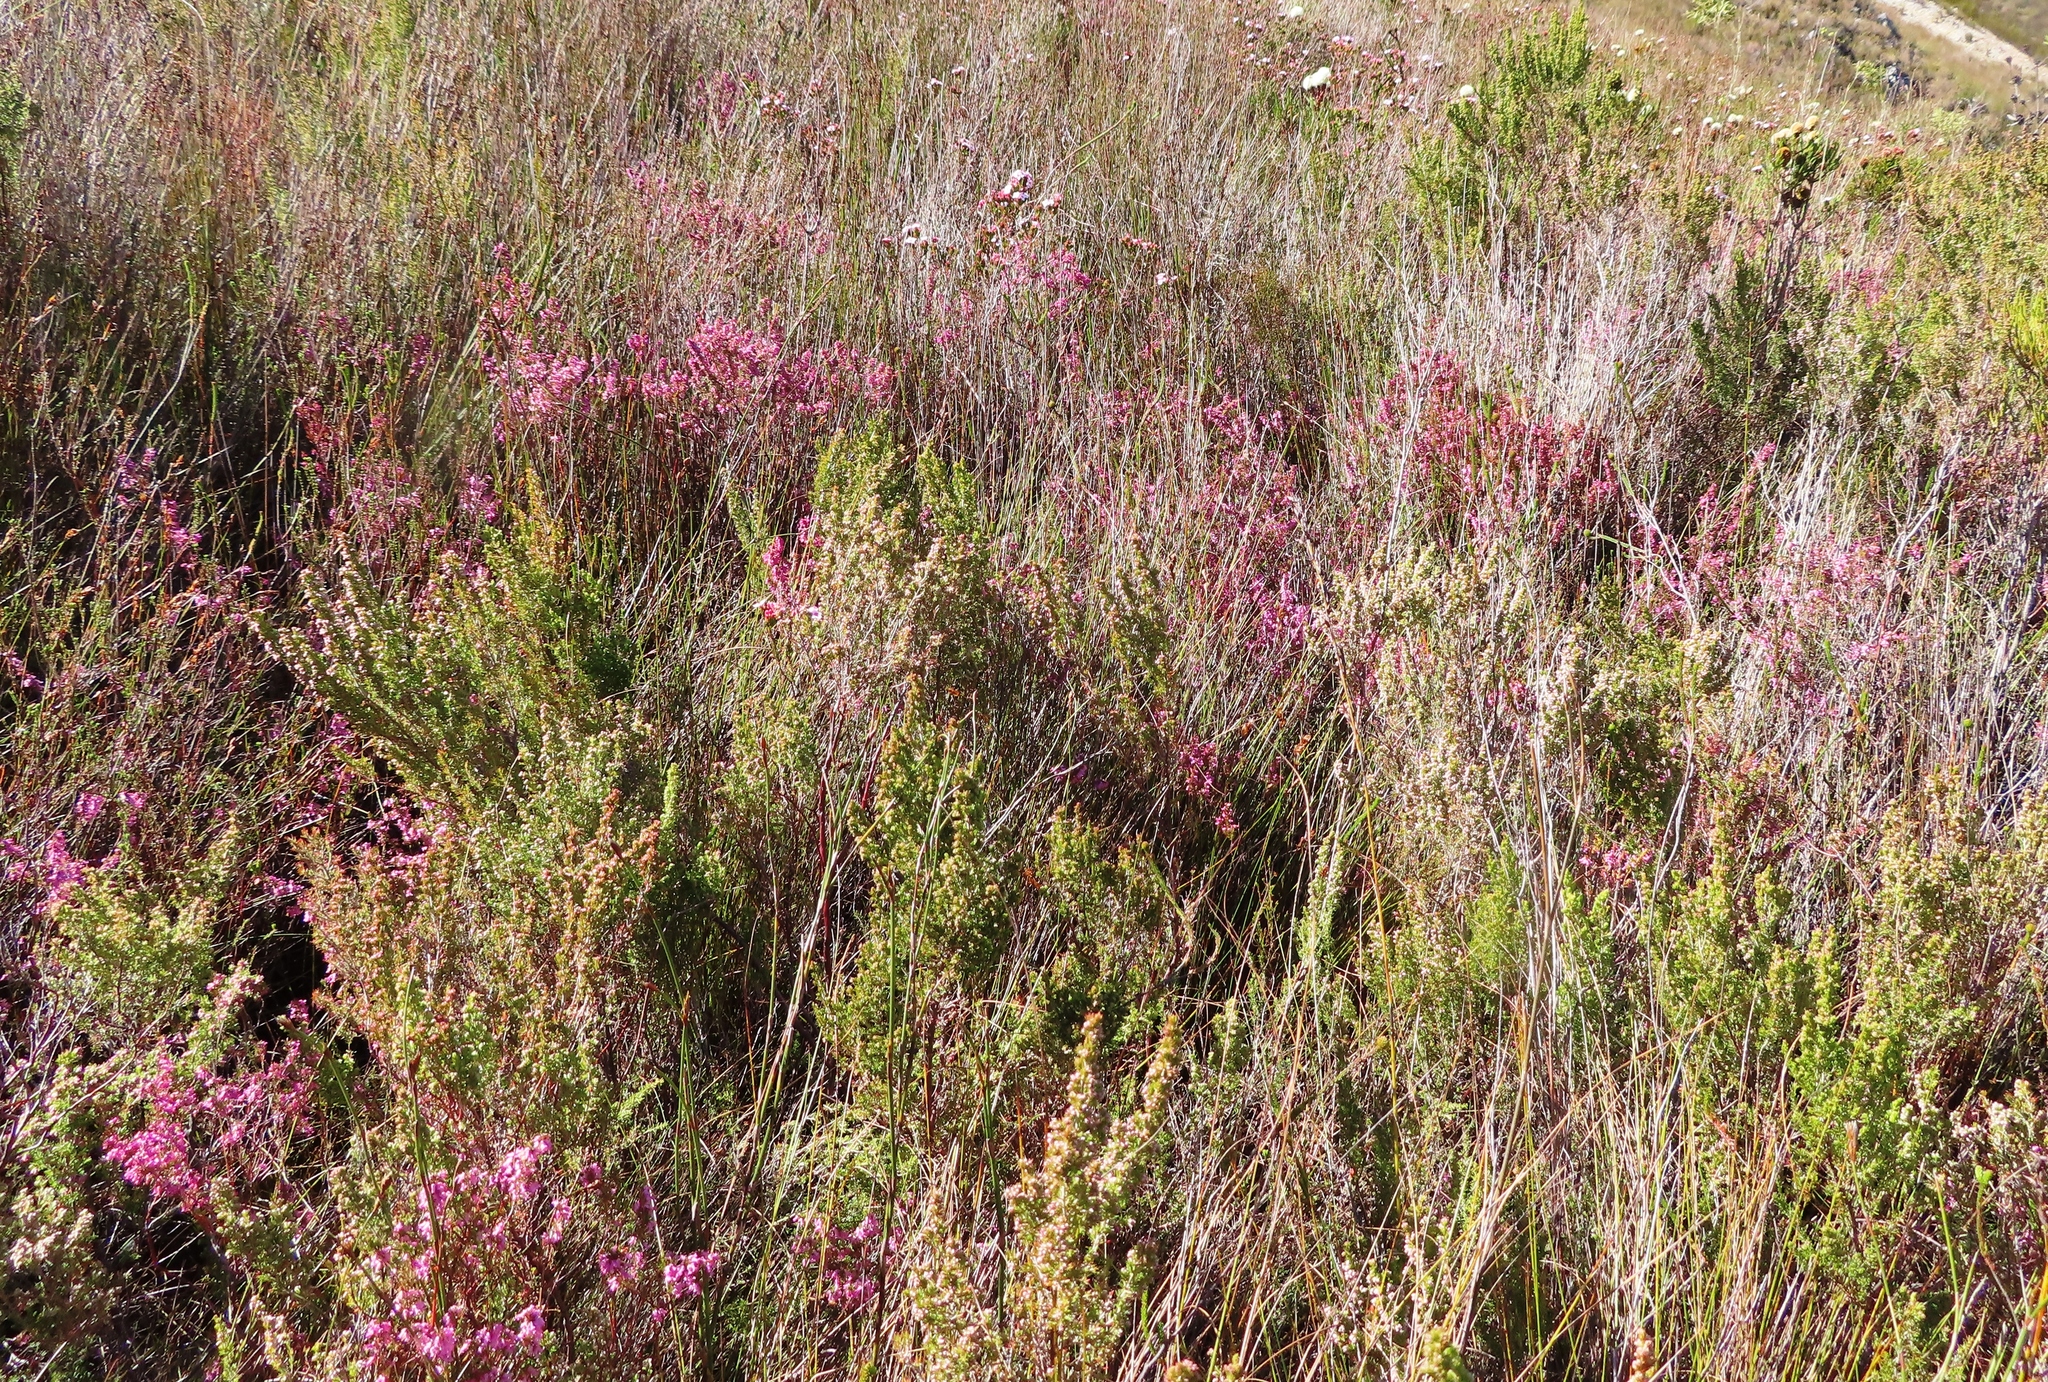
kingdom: Plantae
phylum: Tracheophyta
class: Magnoliopsida
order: Ericales
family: Ericaceae
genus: Erica
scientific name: Erica intervallaris
